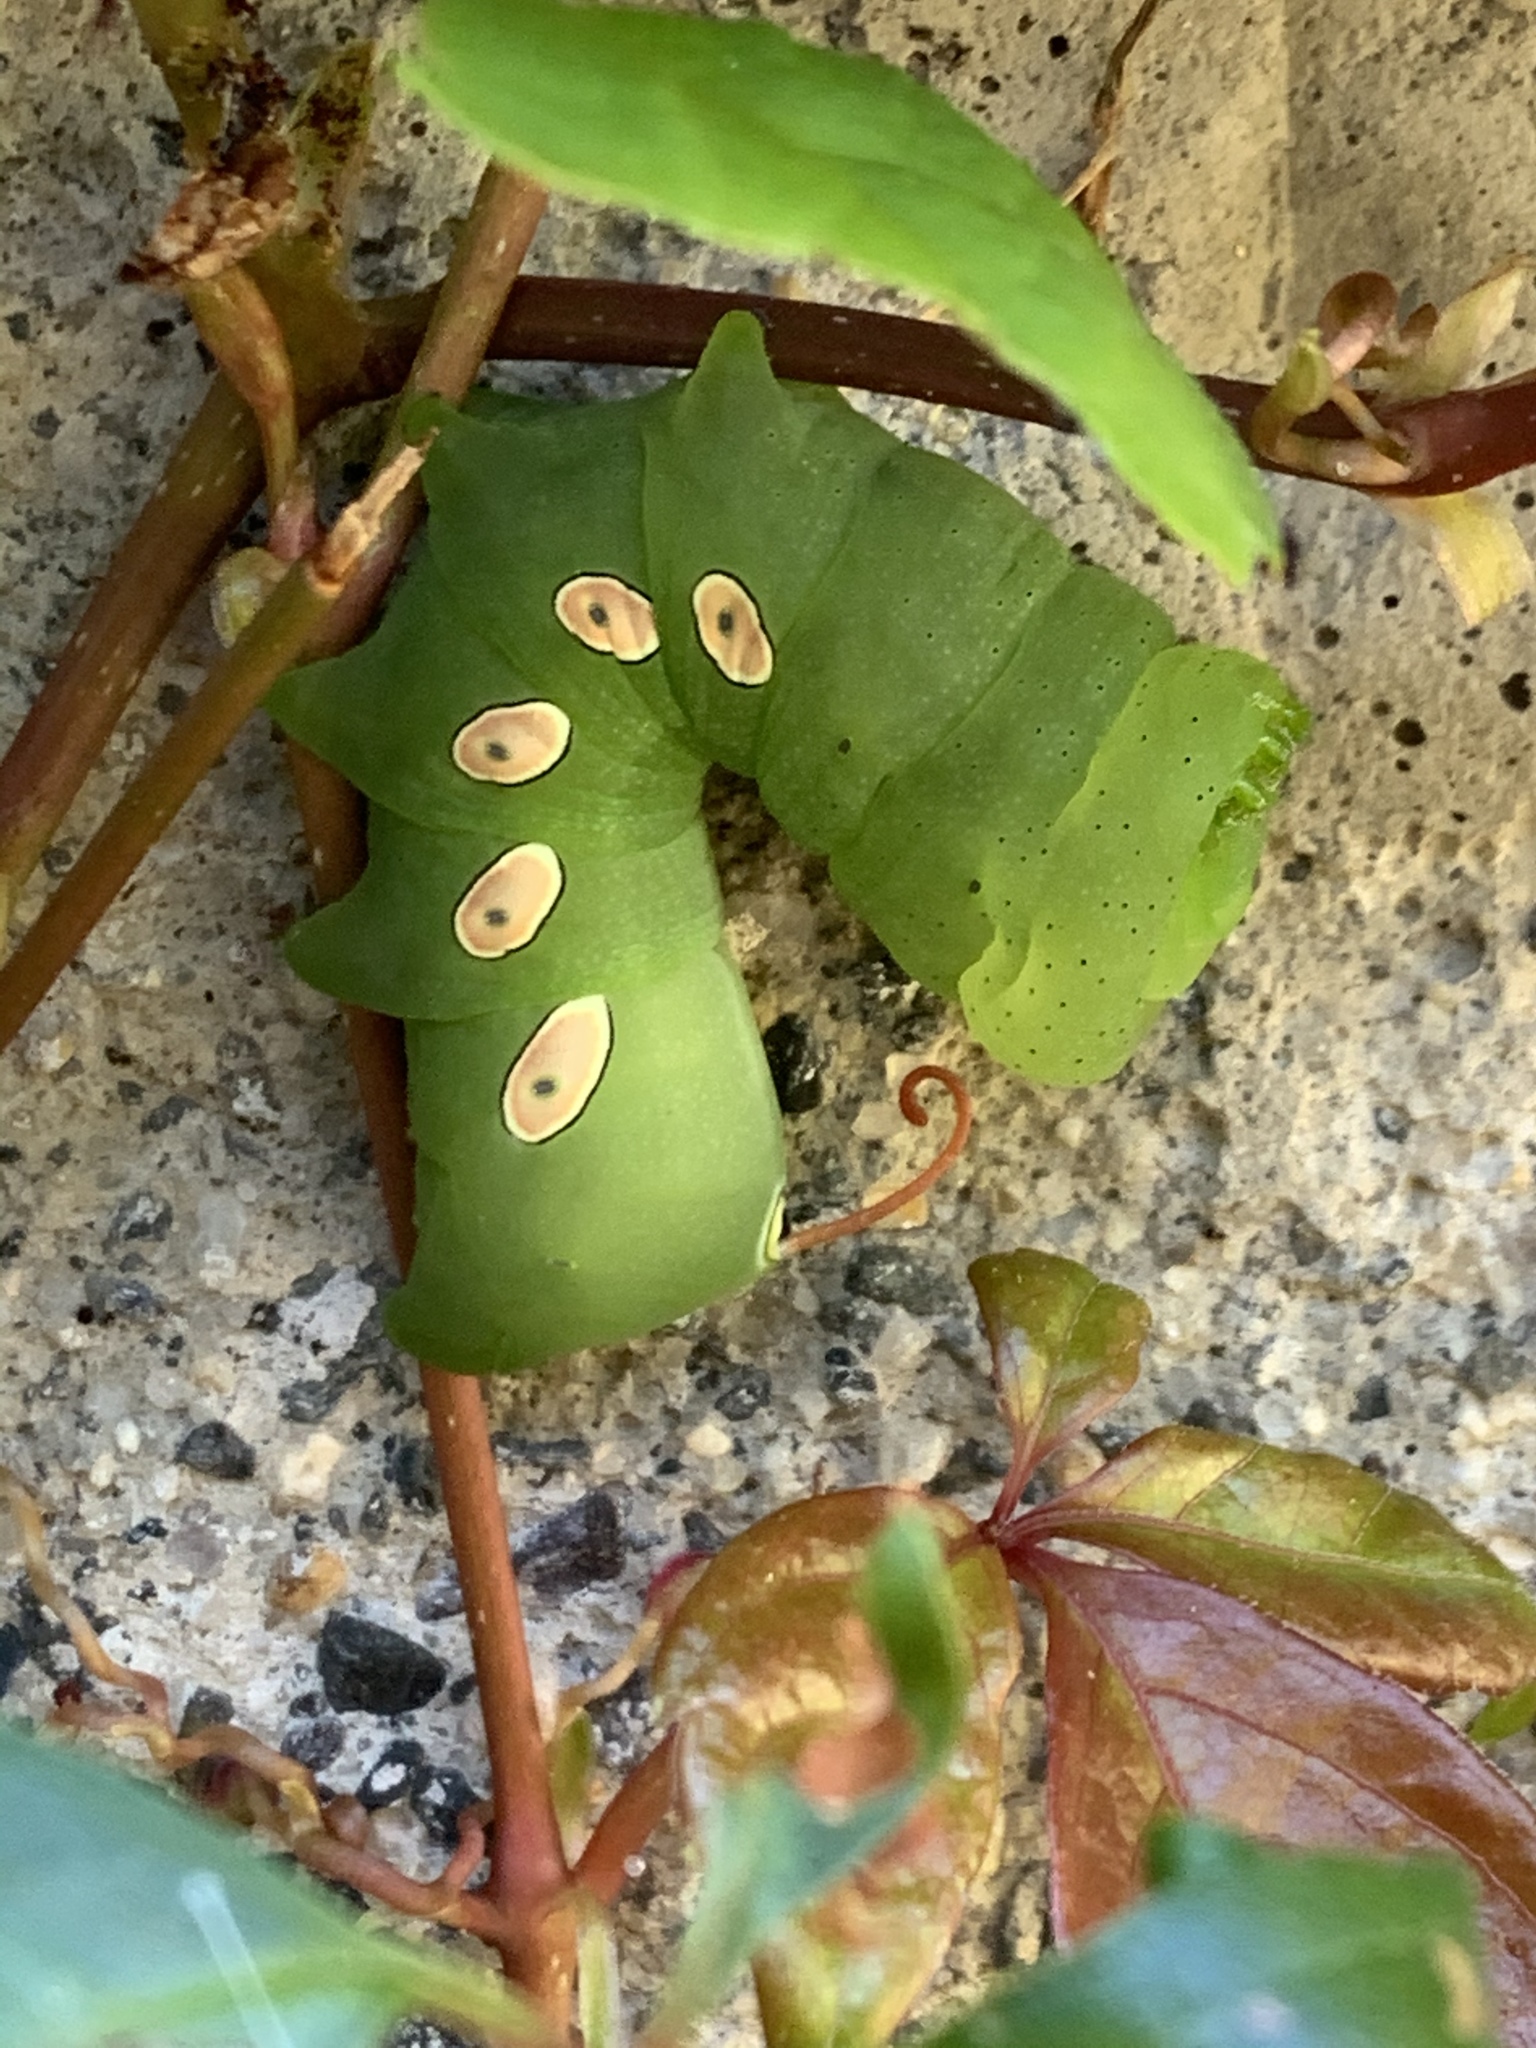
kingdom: Animalia
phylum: Arthropoda
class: Insecta
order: Lepidoptera
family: Sphingidae
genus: Eumorpha
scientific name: Eumorpha pandorus
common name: Pandora sphinx
